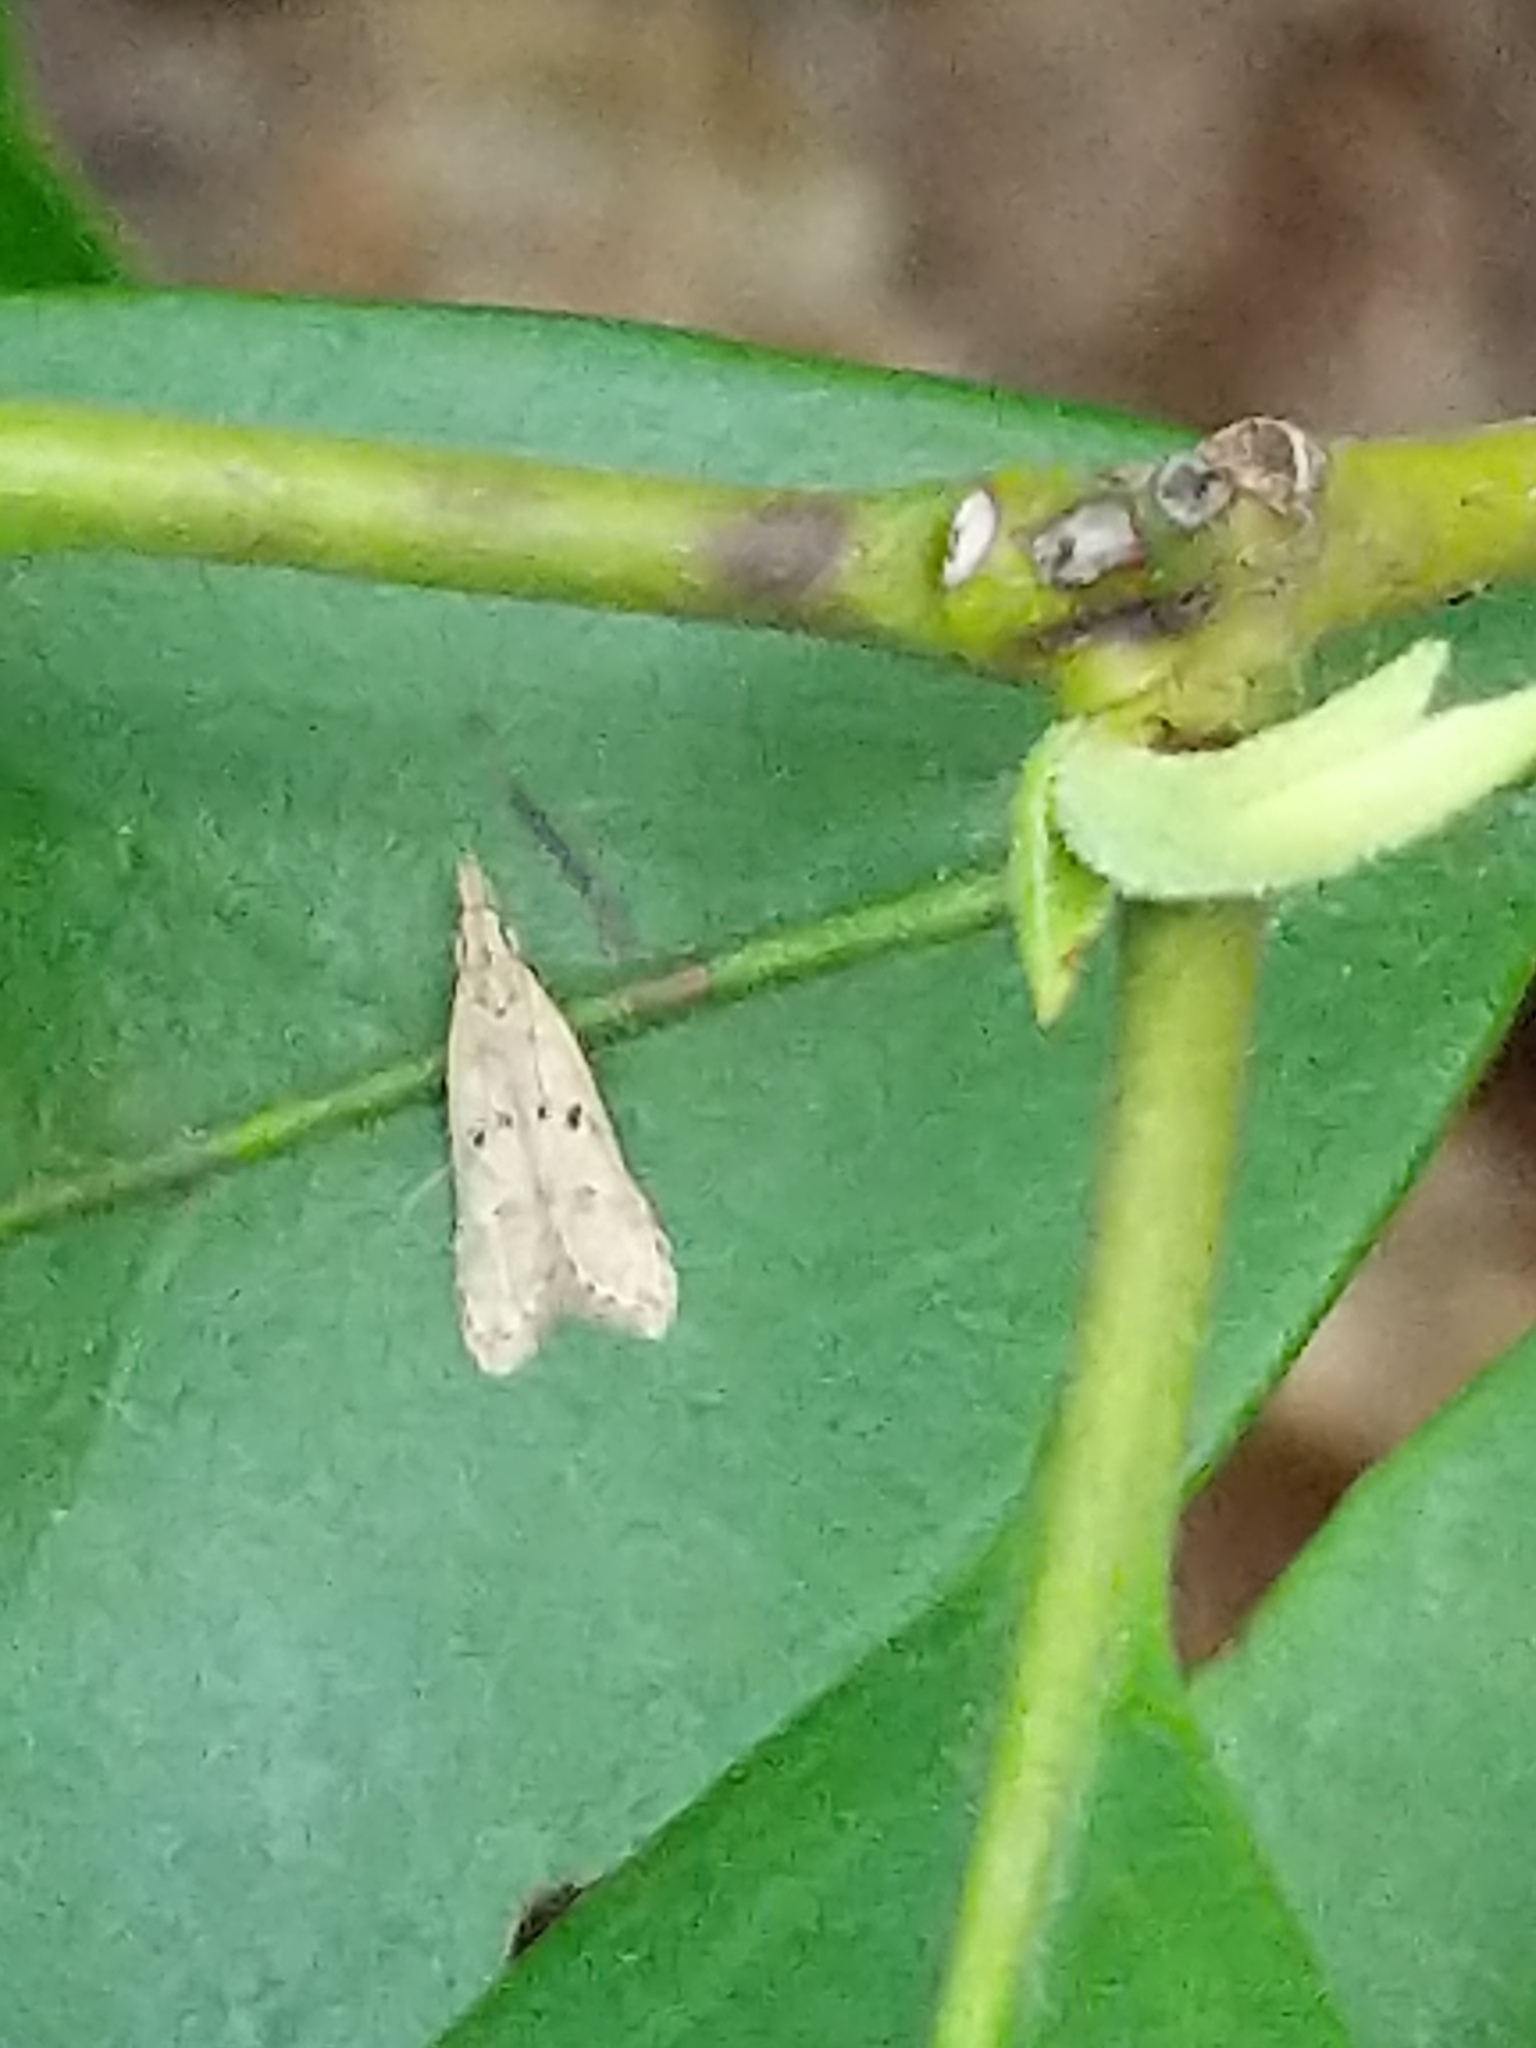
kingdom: Animalia
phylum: Arthropoda
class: Insecta
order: Lepidoptera
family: Gelechiidae
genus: Dichomeris
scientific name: Dichomeris punctipennella
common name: Many-spotted dichomeris moth
